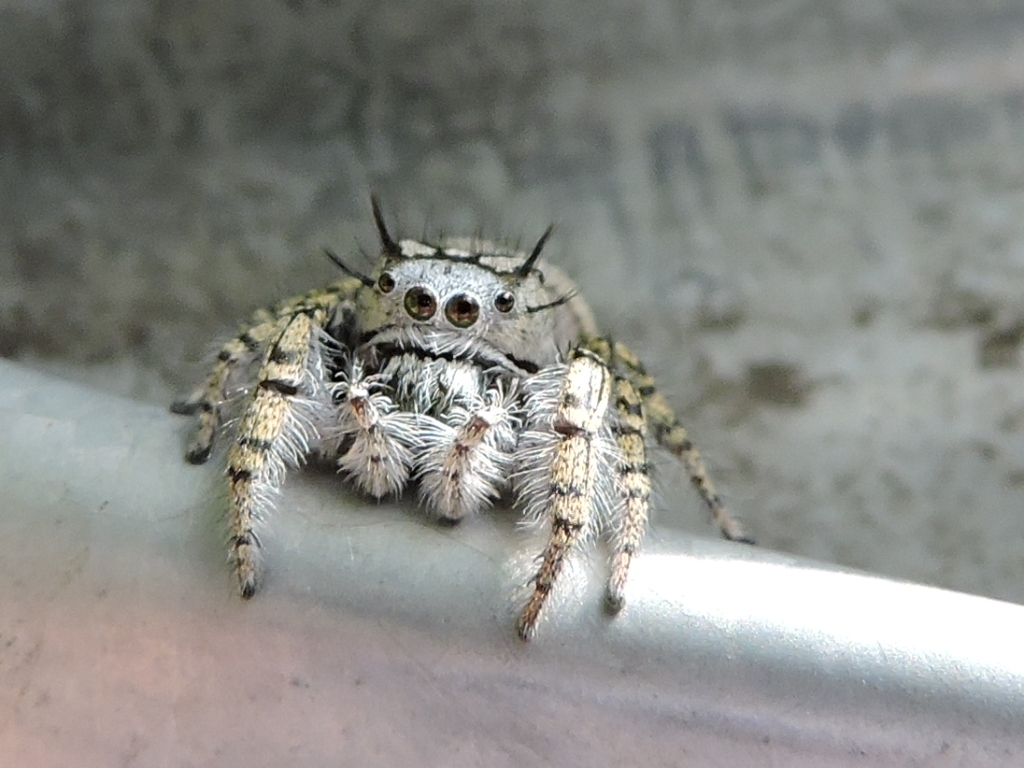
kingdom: Animalia
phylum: Arthropoda
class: Arachnida
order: Araneae
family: Salticidae
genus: Phidippus
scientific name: Phidippus mystaceus
